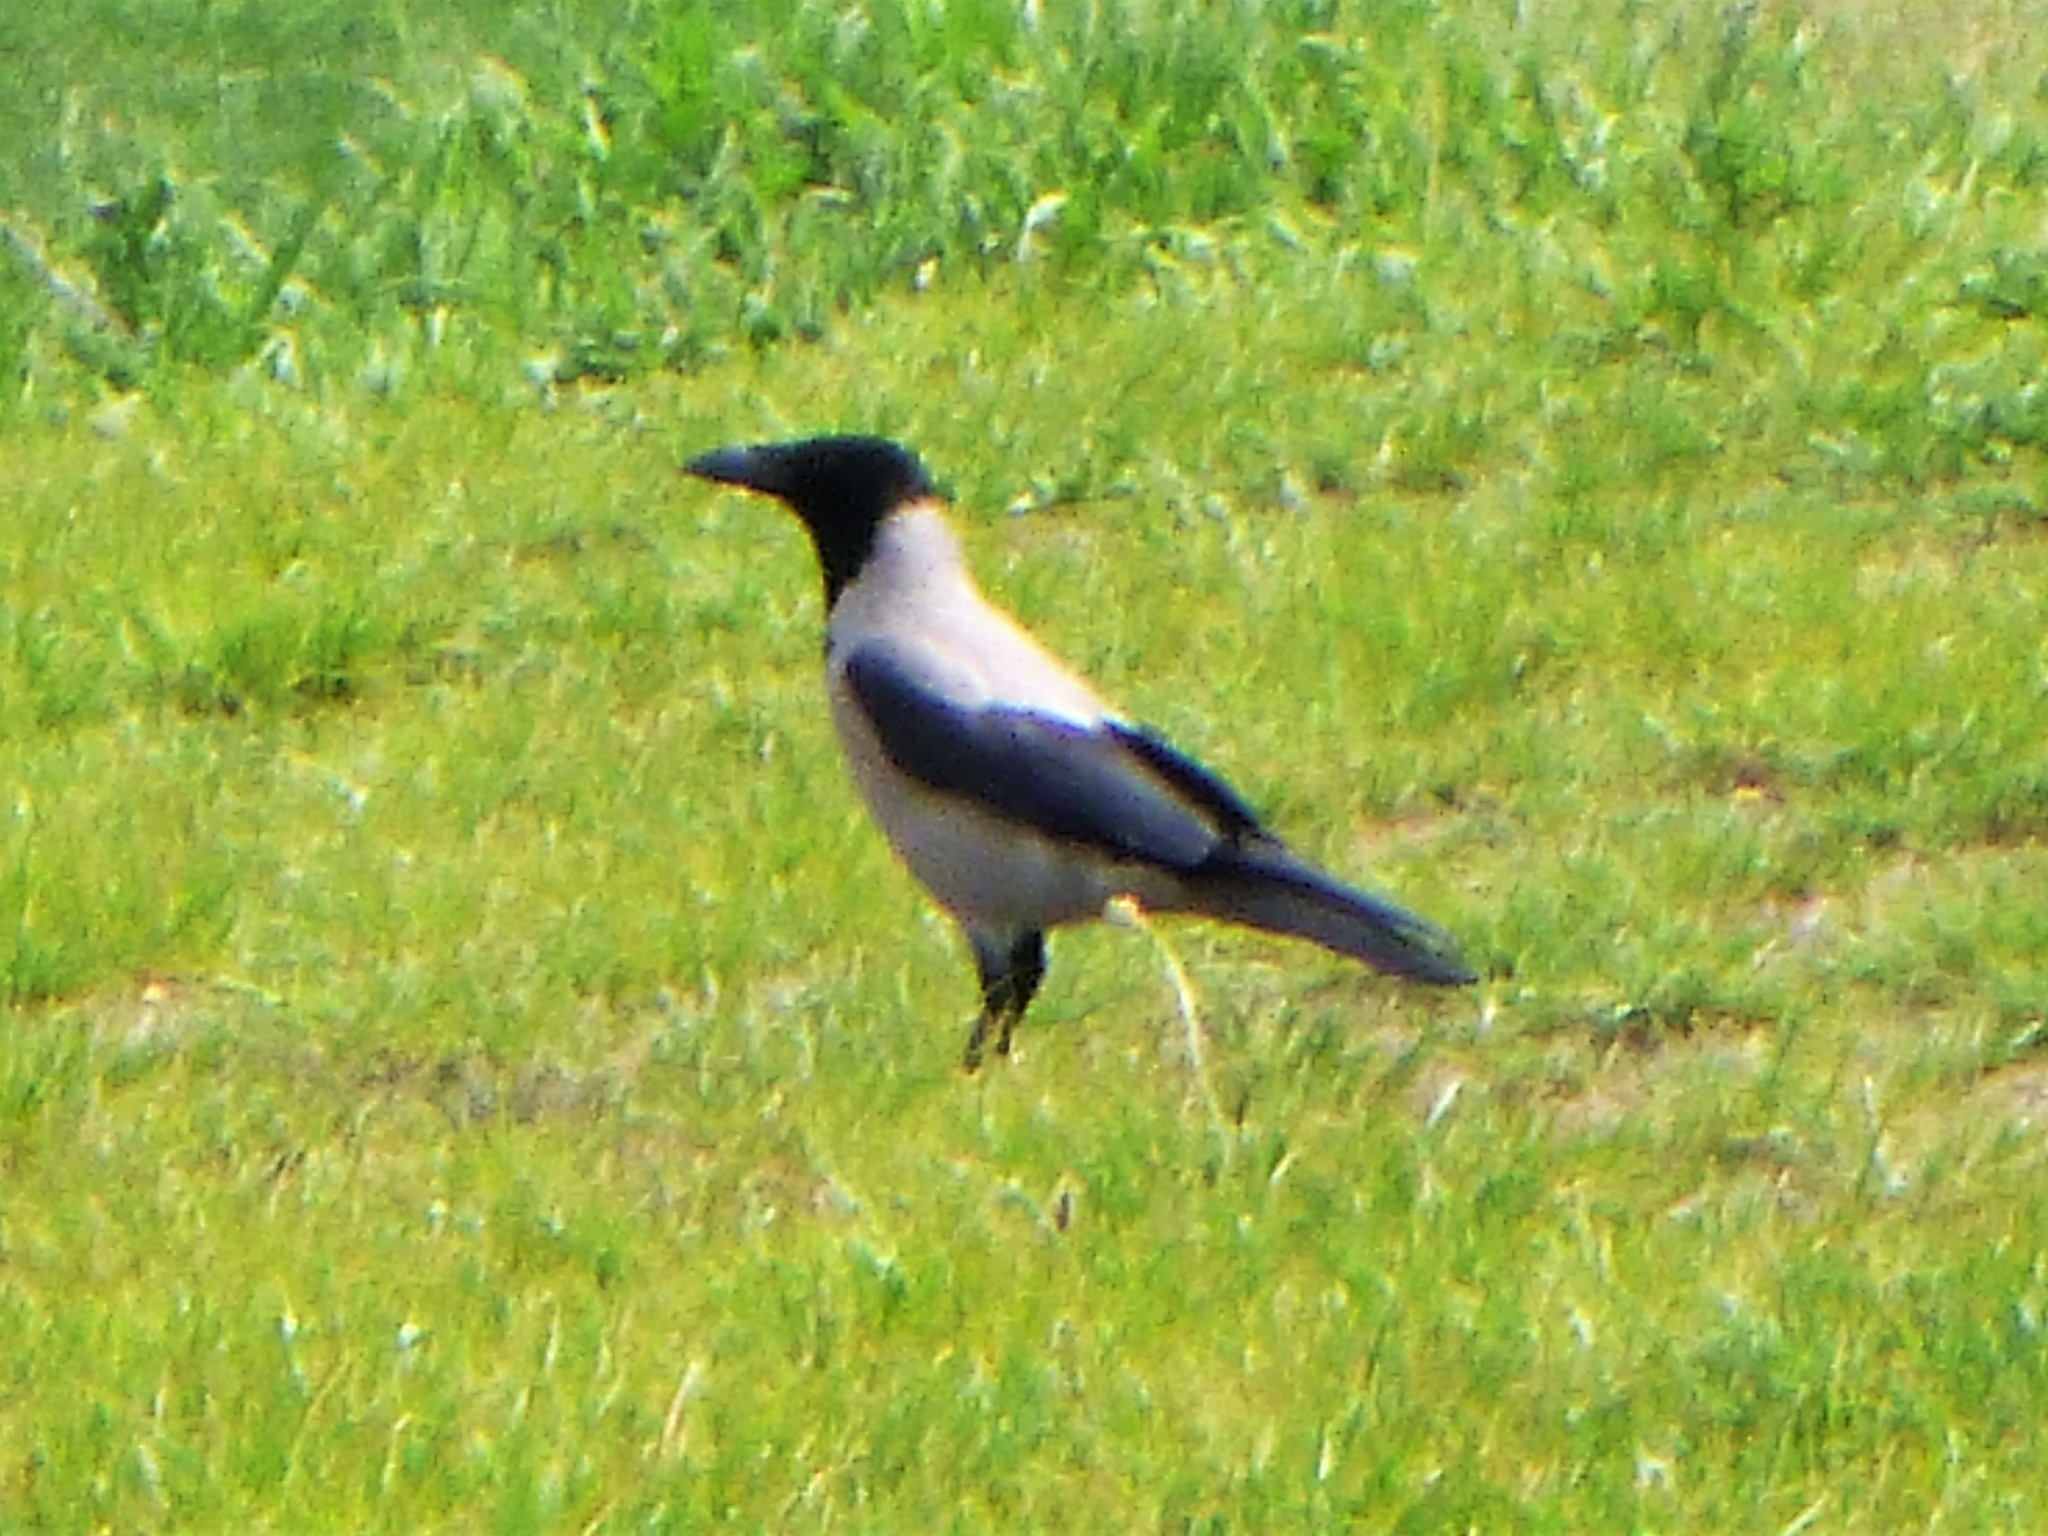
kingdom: Animalia
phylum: Chordata
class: Aves
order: Passeriformes
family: Corvidae
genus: Corvus
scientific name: Corvus cornix
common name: Hooded crow
